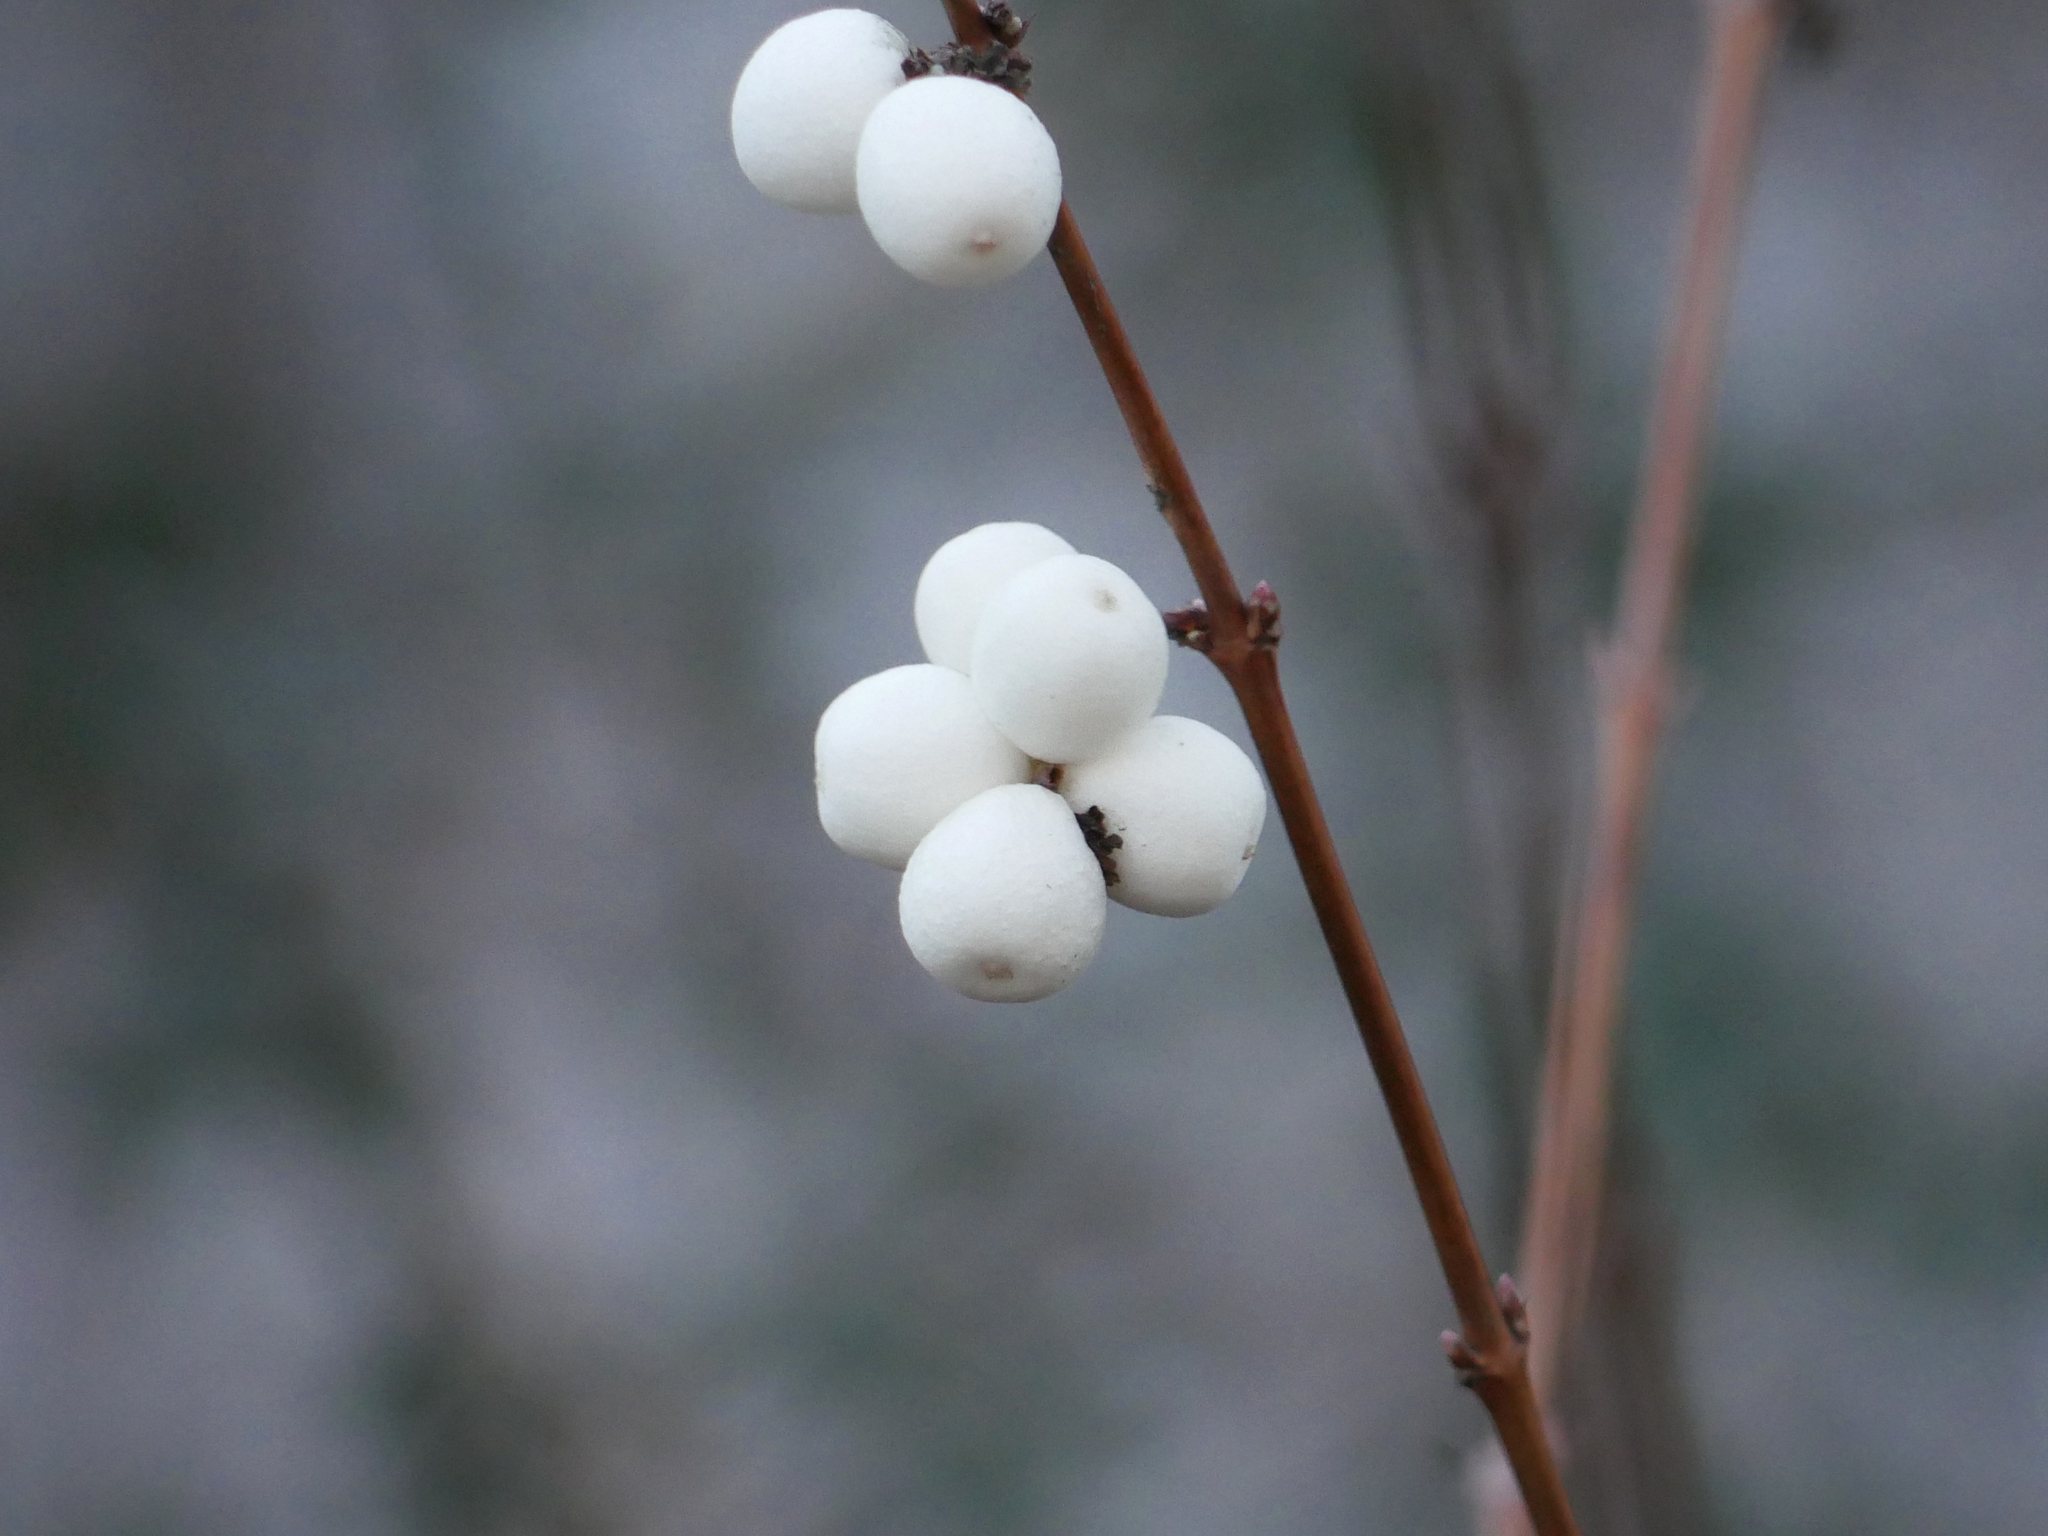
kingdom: Plantae
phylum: Tracheophyta
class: Magnoliopsida
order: Dipsacales
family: Caprifoliaceae
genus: Symphoricarpos
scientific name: Symphoricarpos albus
